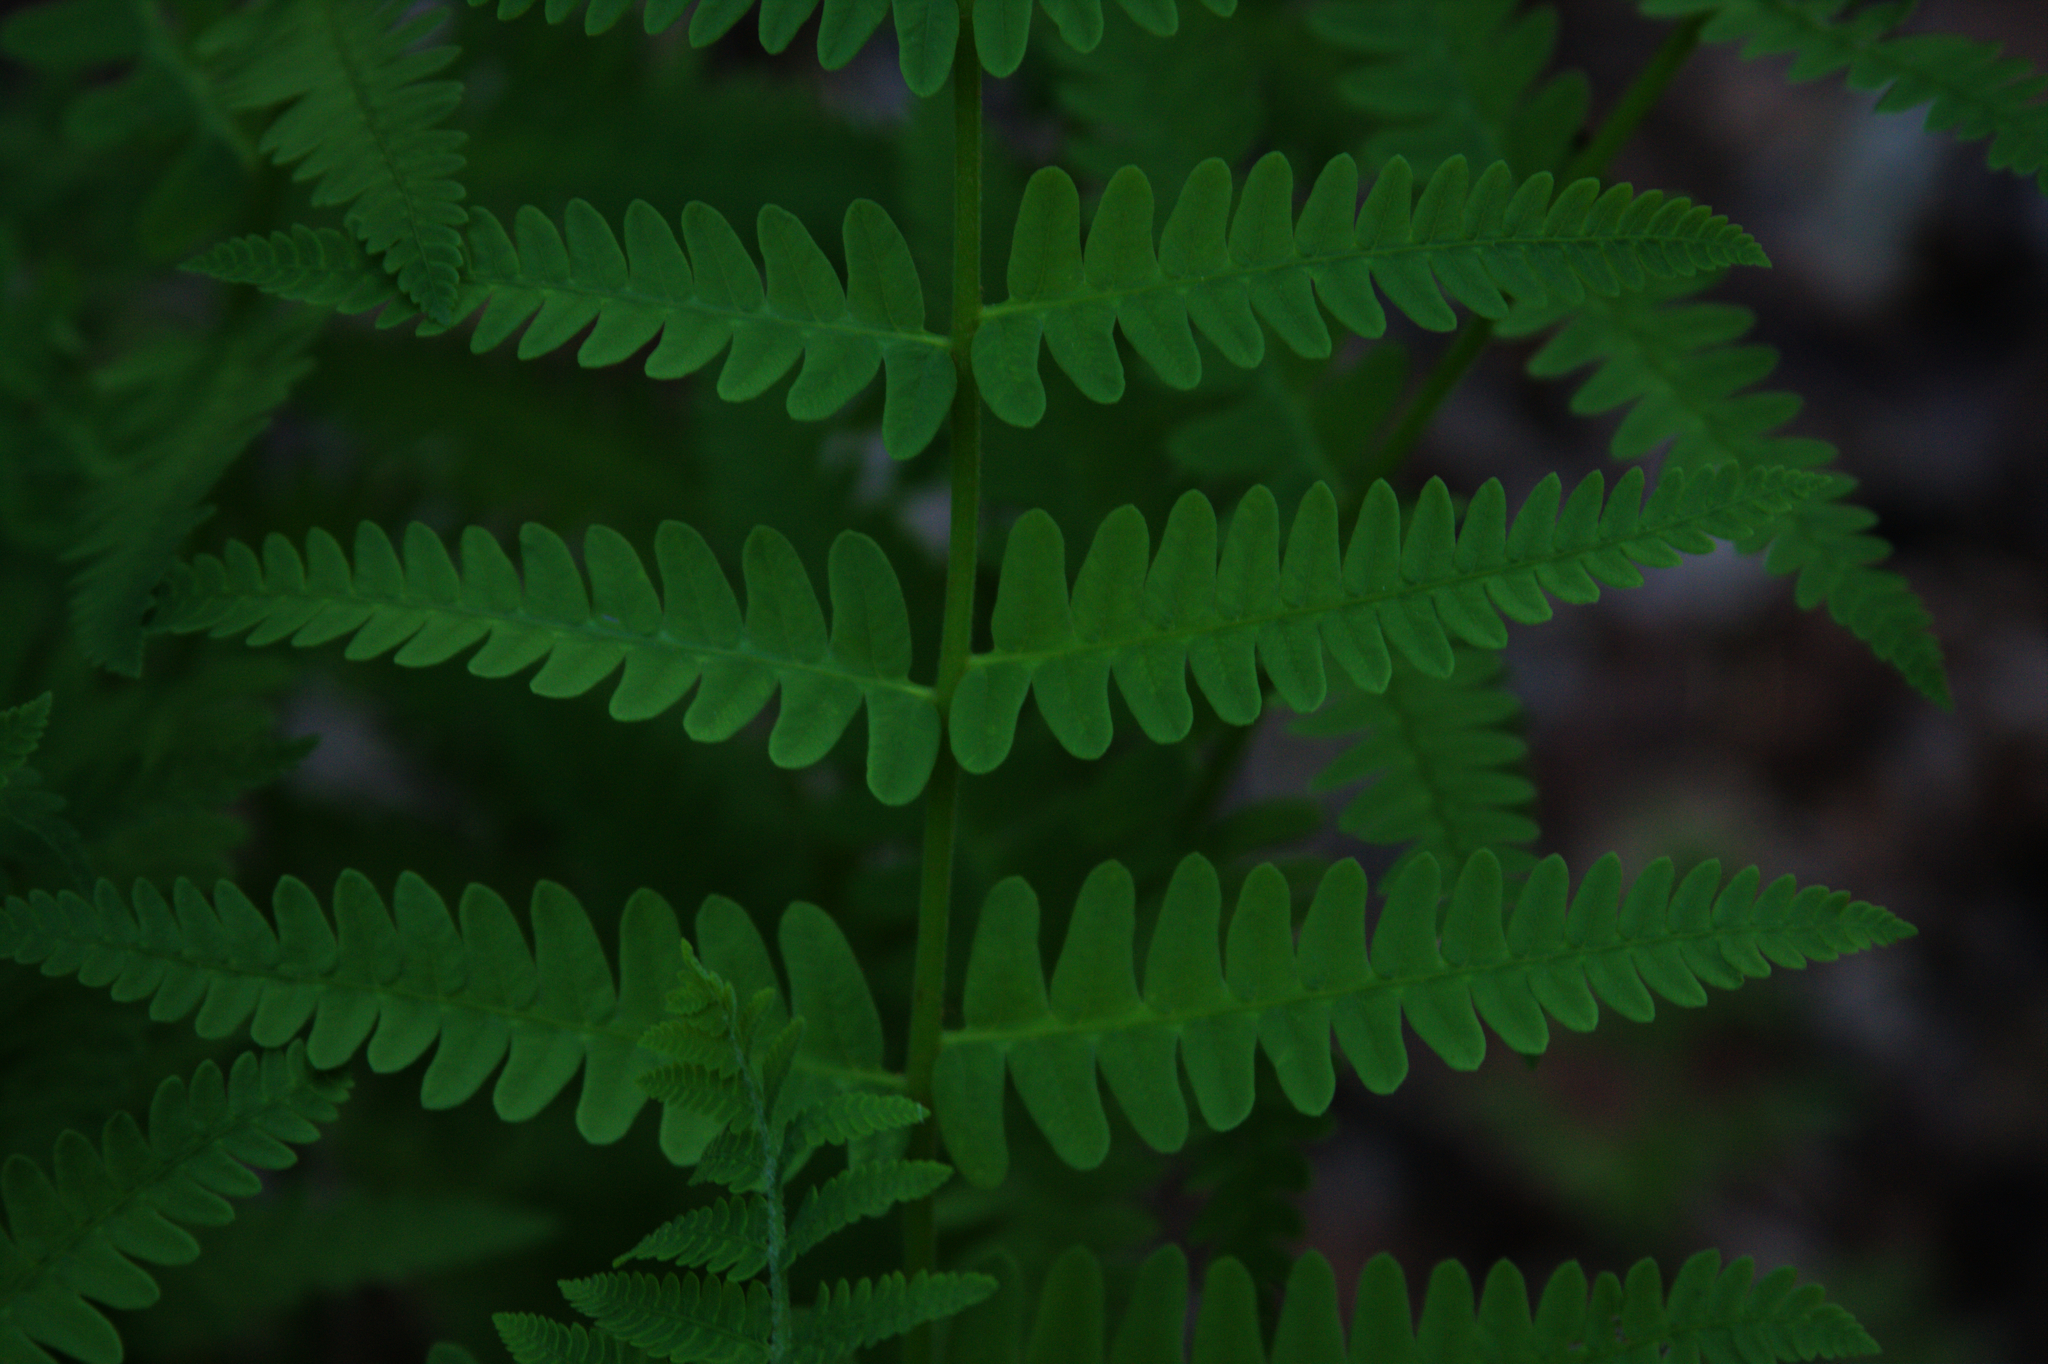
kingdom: Plantae
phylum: Tracheophyta
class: Polypodiopsida
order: Osmundales
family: Osmundaceae
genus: Claytosmunda
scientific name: Claytosmunda claytoniana
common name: Clayton's fern
